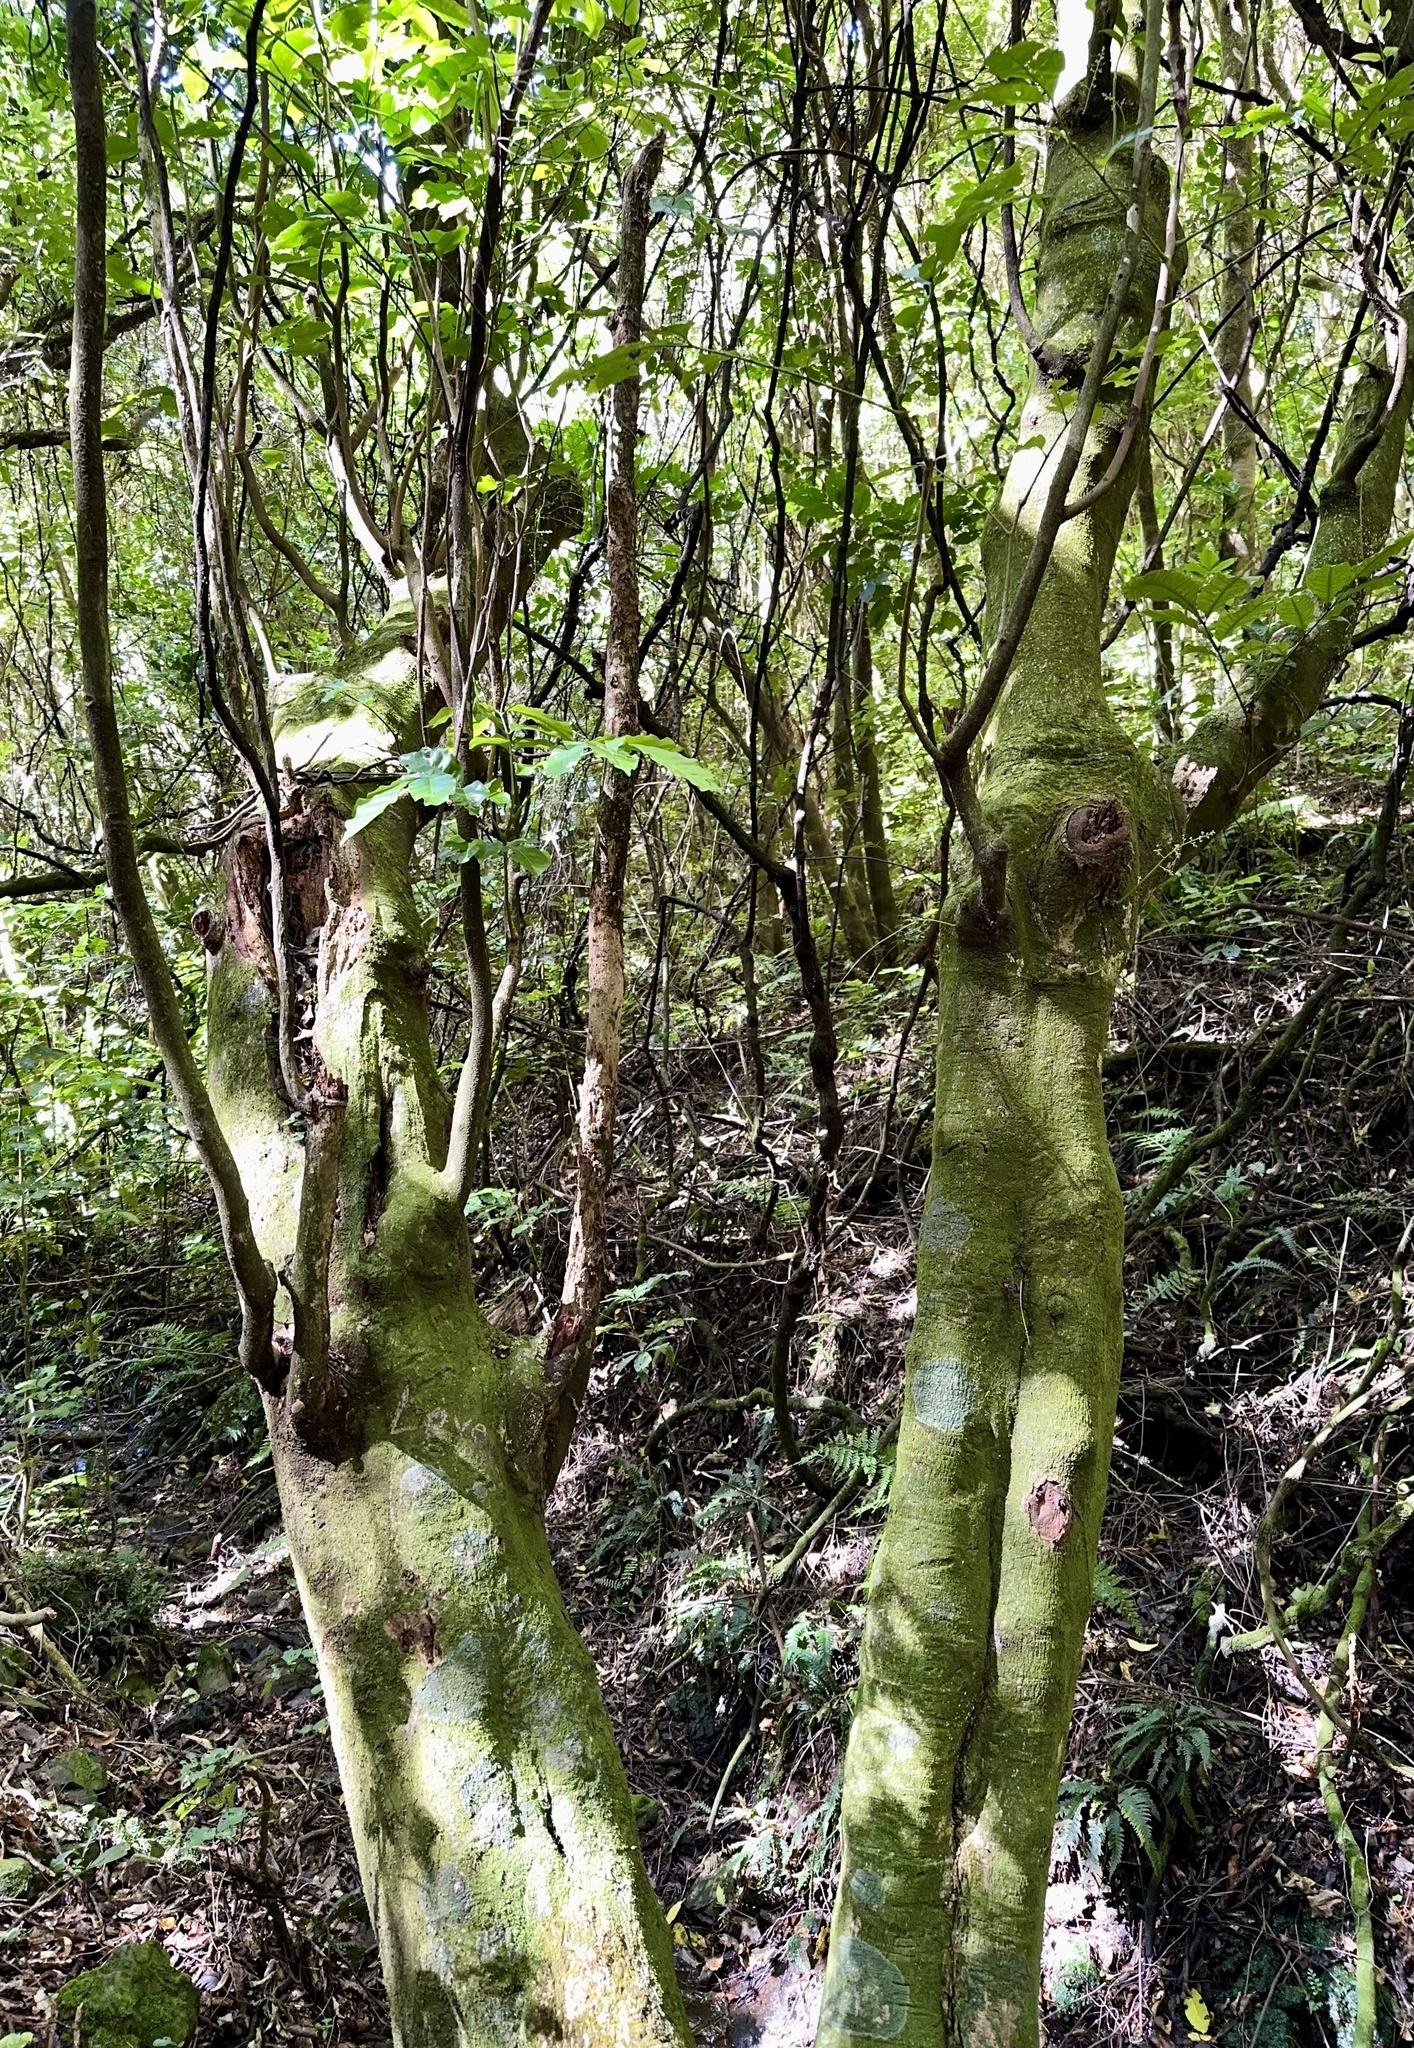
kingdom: Plantae
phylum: Tracheophyta
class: Magnoliopsida
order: Sapindales
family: Meliaceae
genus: Didymocheton
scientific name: Didymocheton spectabilis
